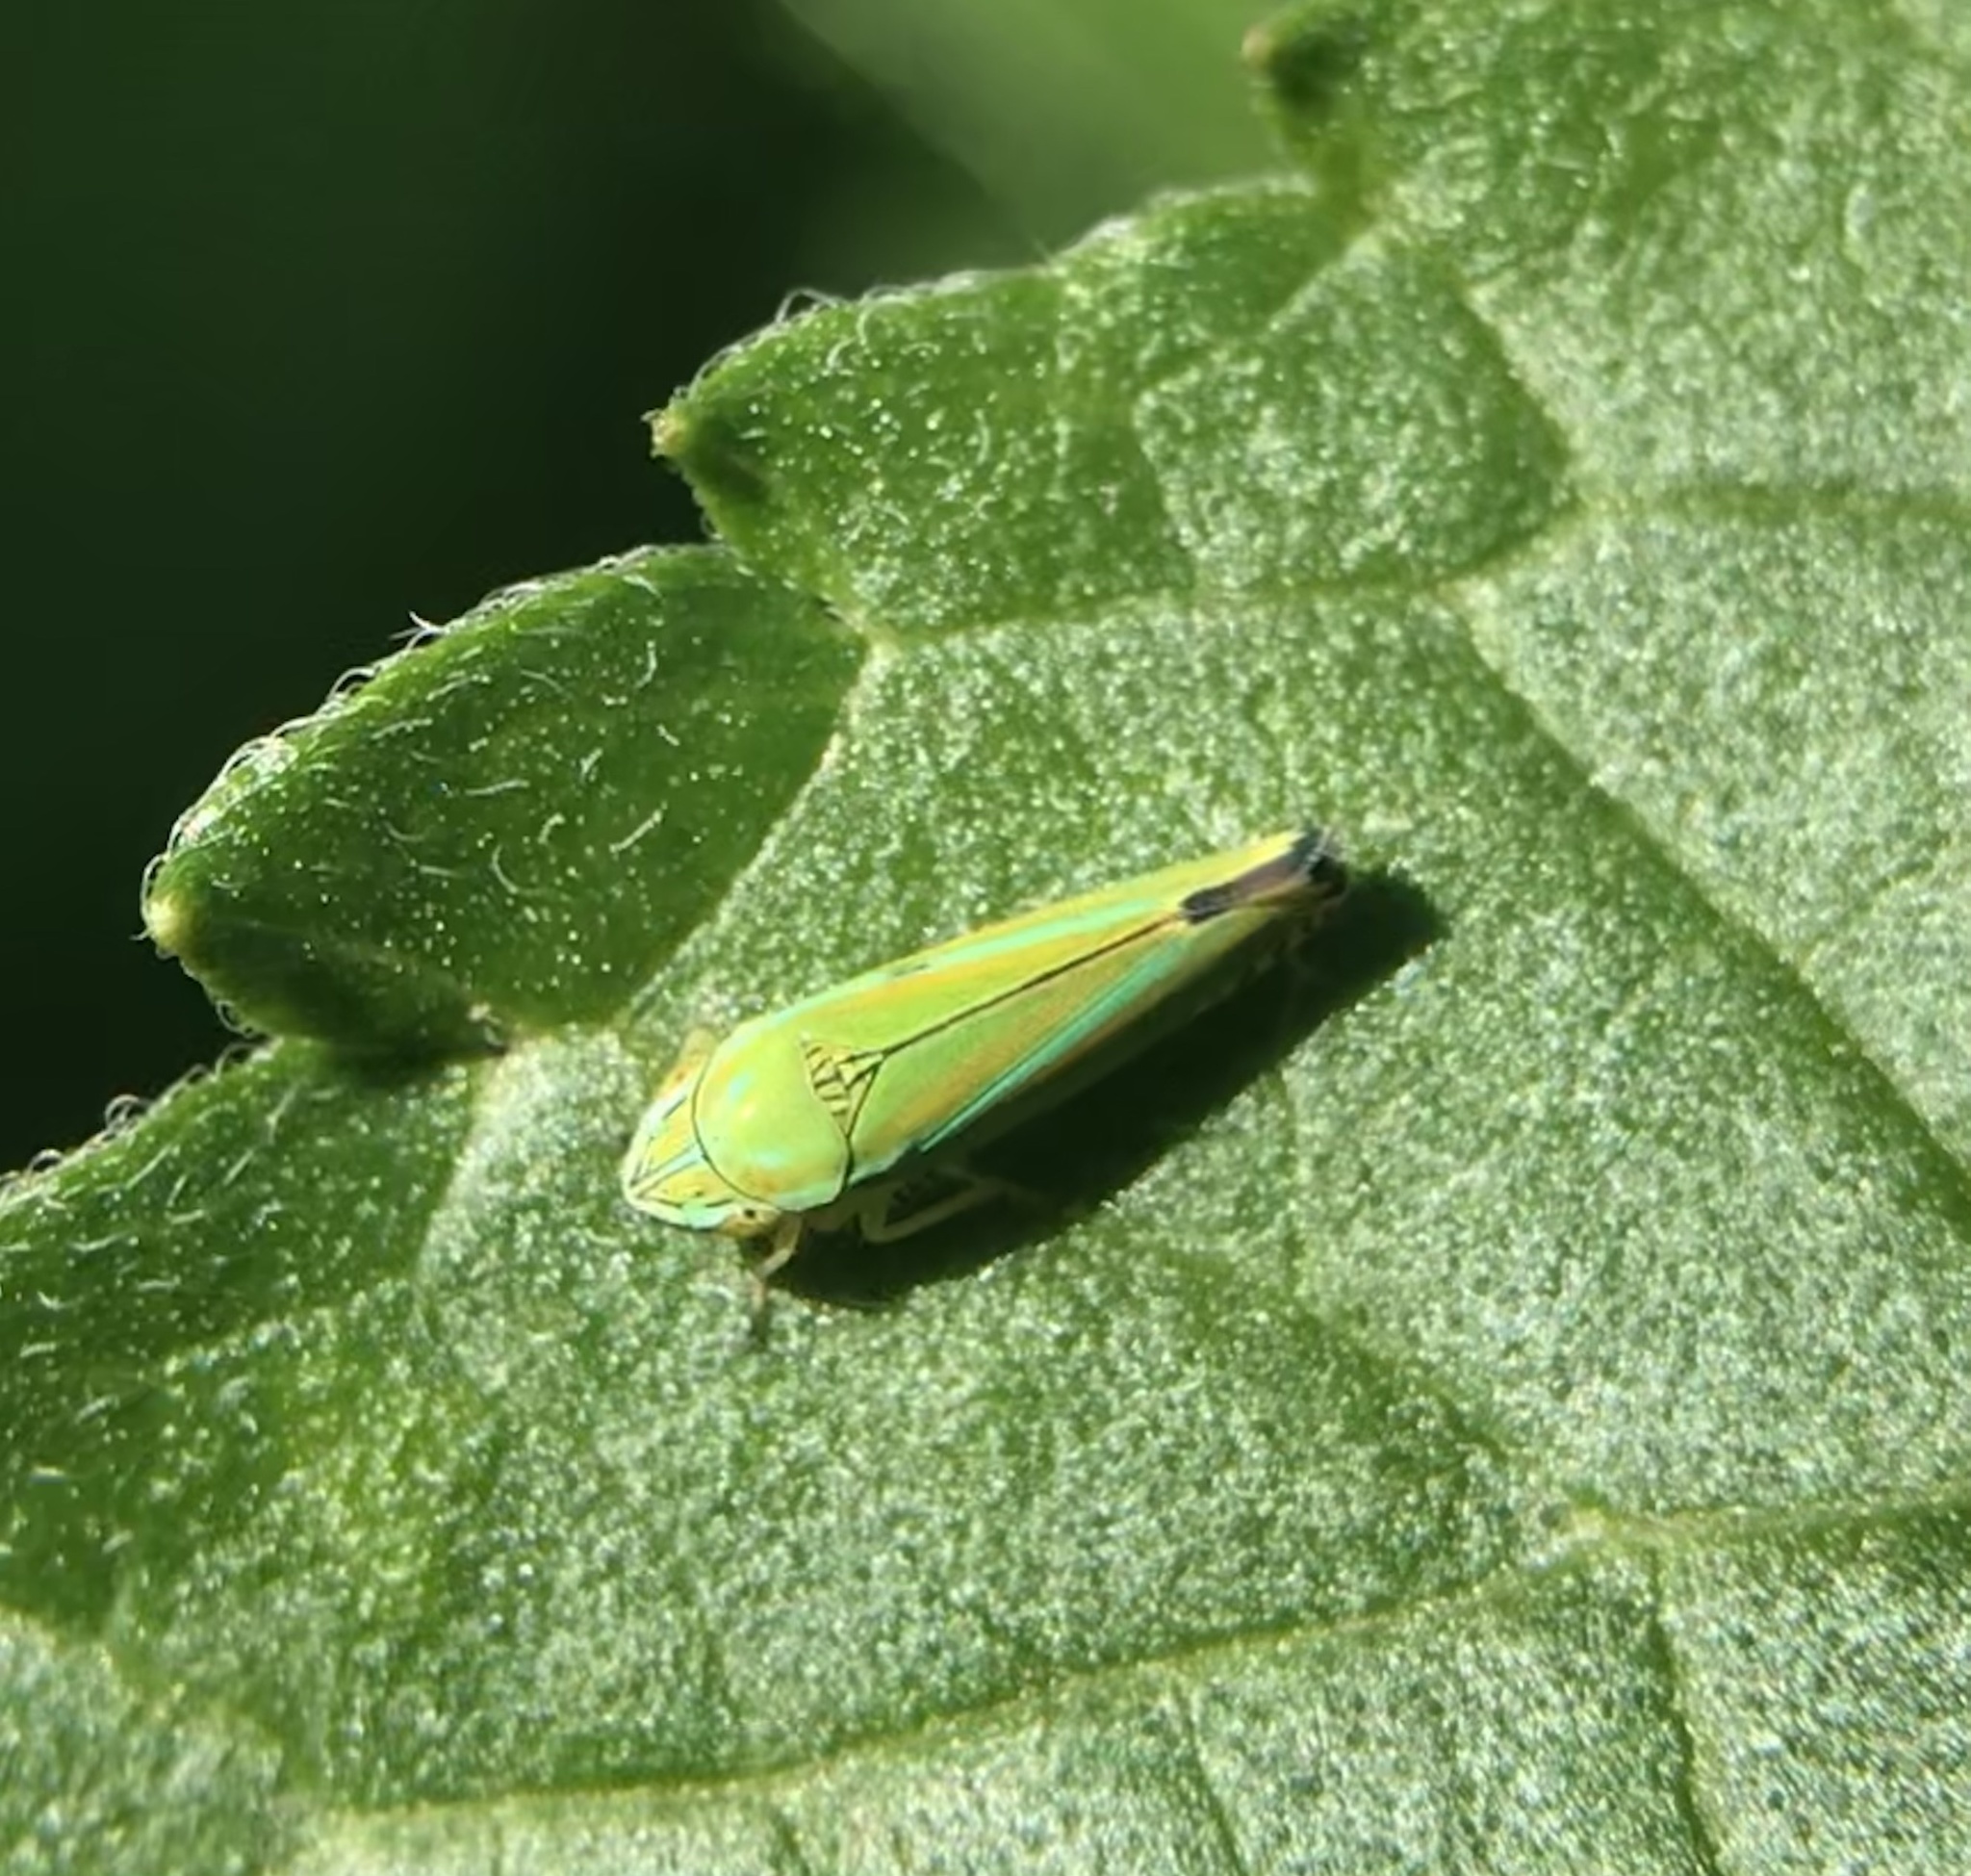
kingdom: Animalia
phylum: Arthropoda
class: Insecta
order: Hemiptera
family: Cicadellidae
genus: Graphocephala
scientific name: Graphocephala versuta
